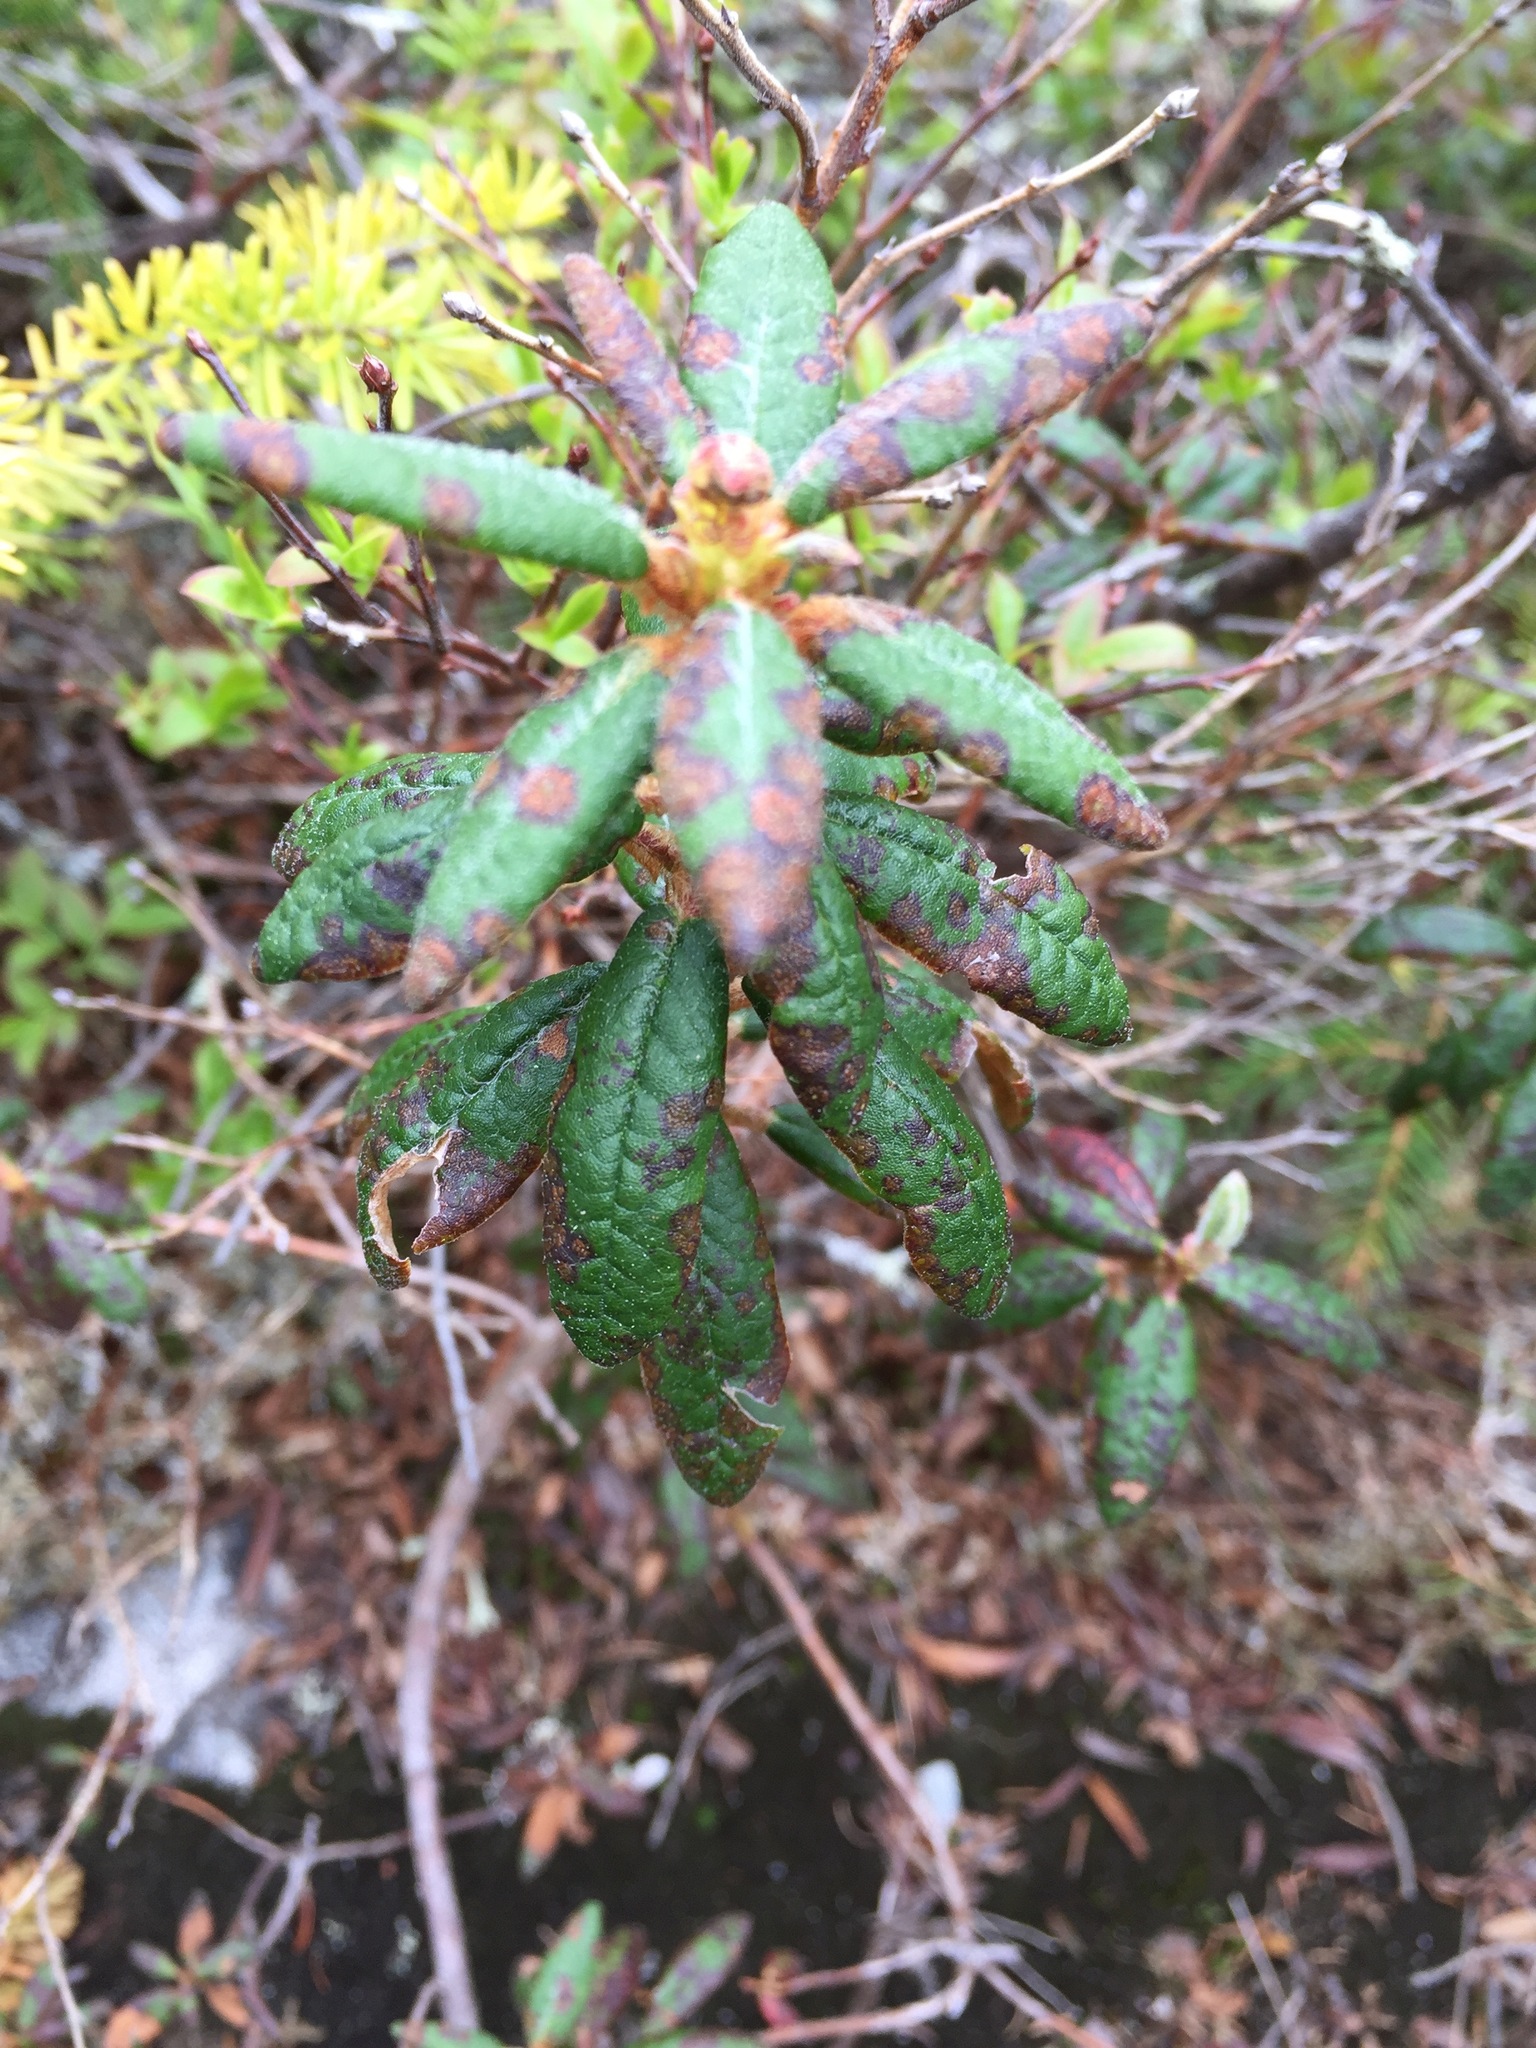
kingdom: Plantae
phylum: Tracheophyta
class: Magnoliopsida
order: Ericales
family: Ericaceae
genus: Rhododendron
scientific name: Rhododendron groenlandicum
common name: Bog labrador tea
